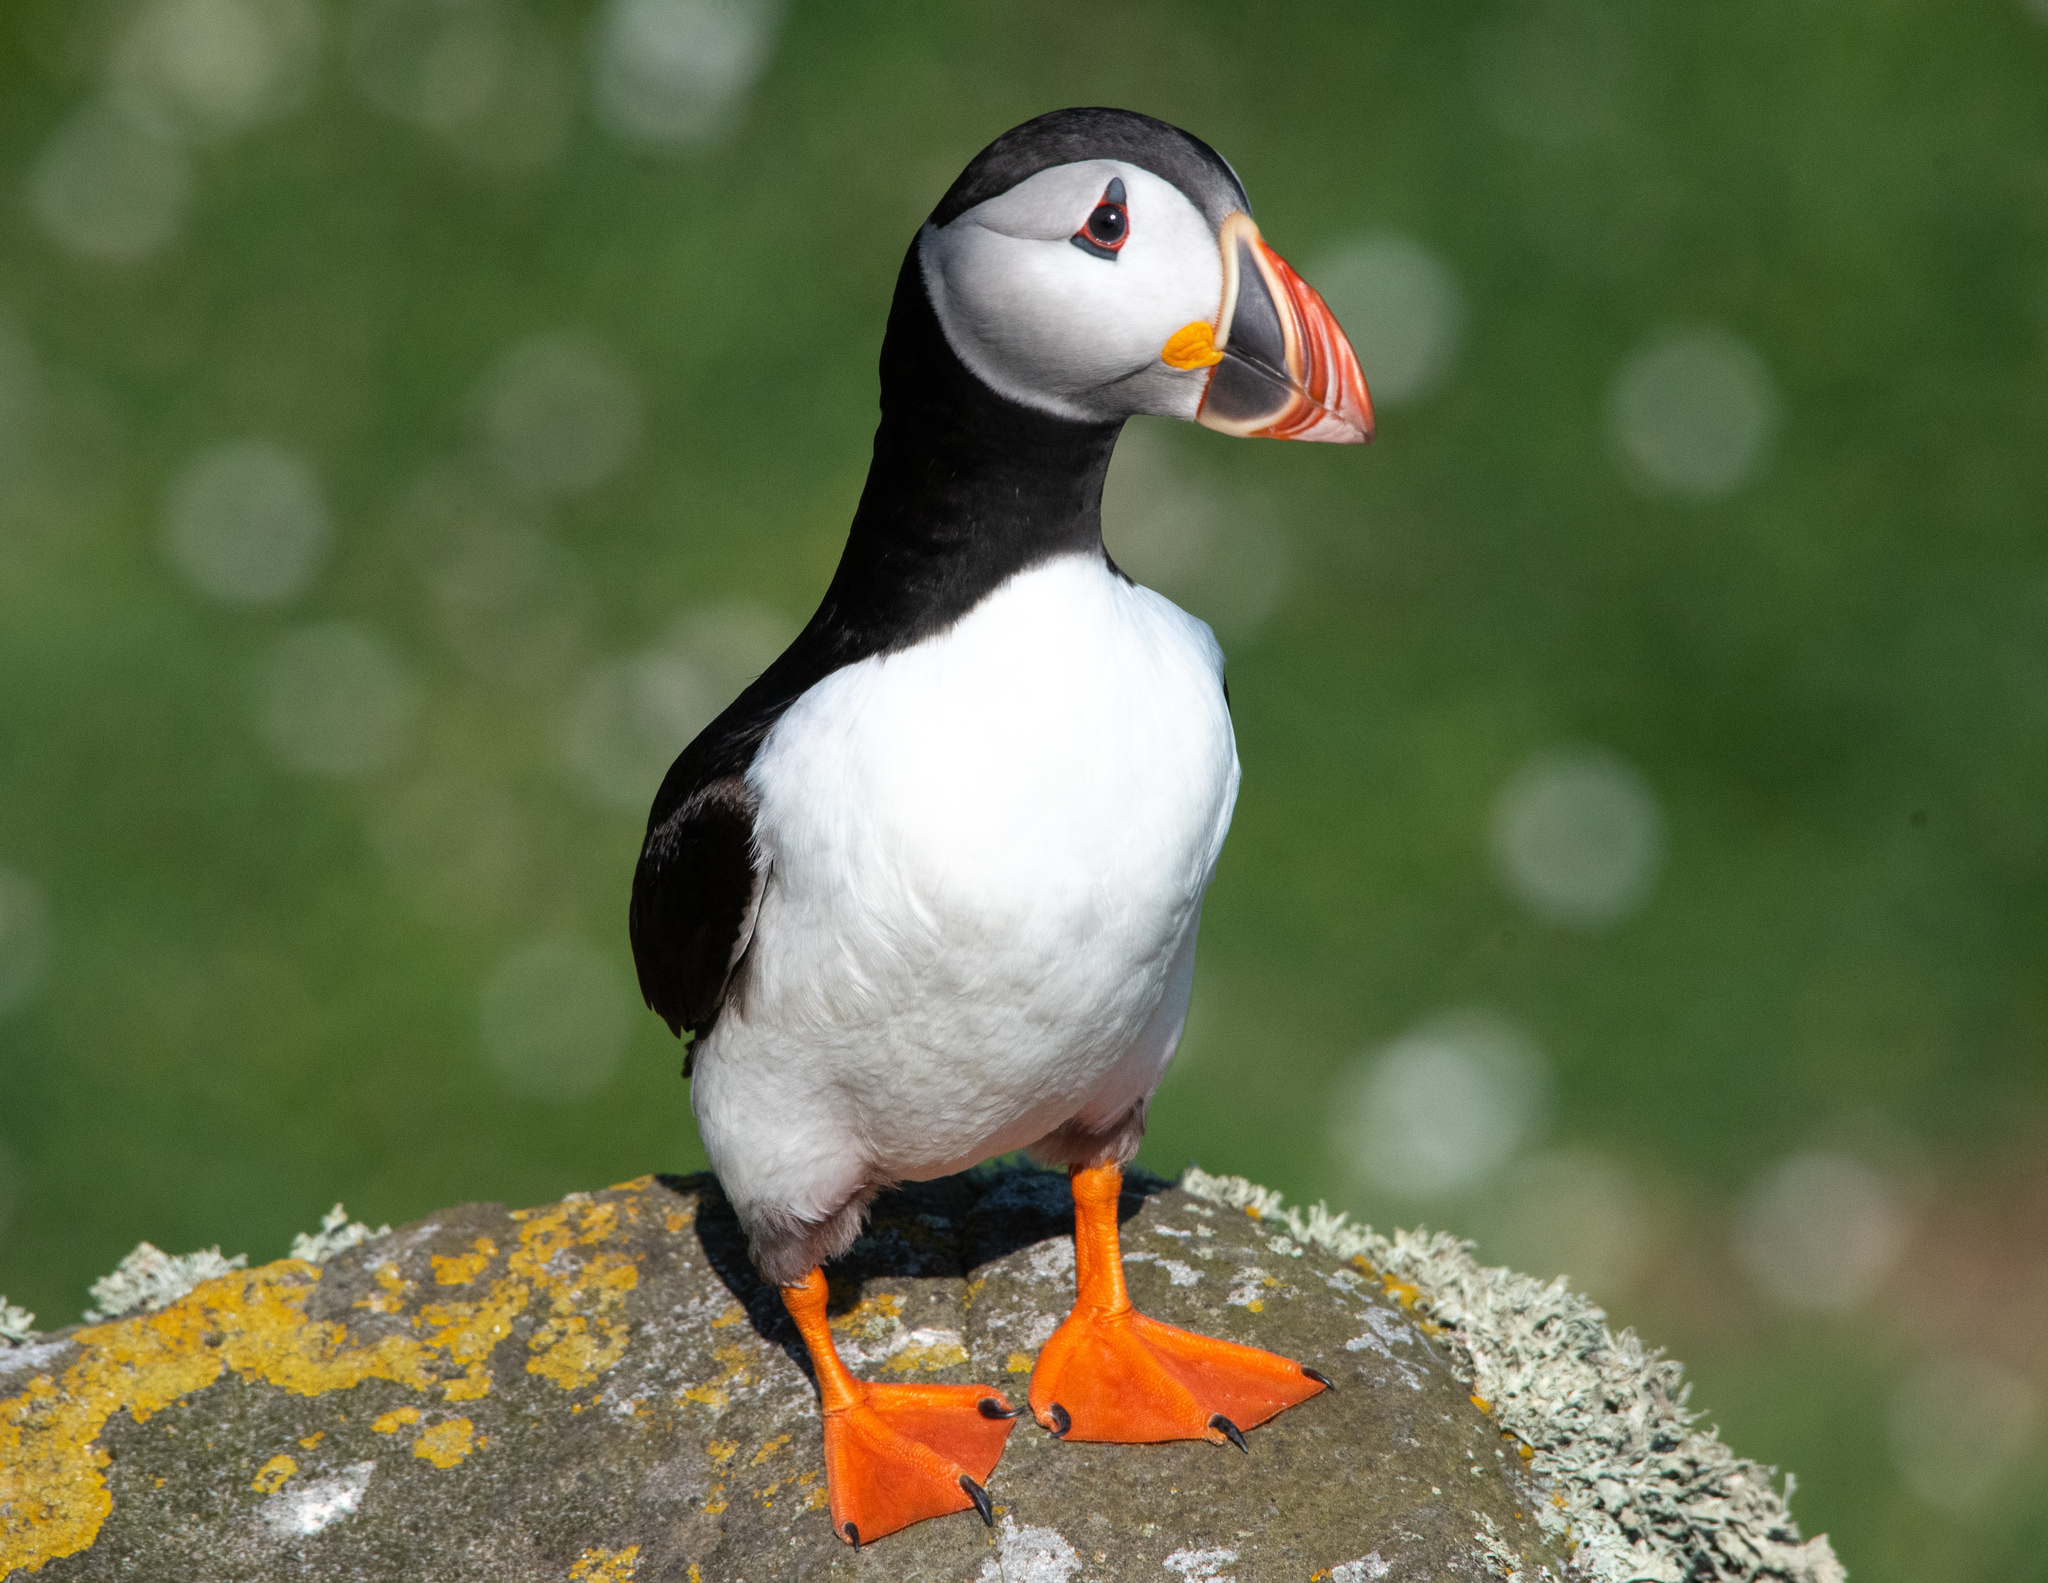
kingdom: Animalia
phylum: Chordata
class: Aves
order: Charadriiformes
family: Alcidae
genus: Fratercula
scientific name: Fratercula arctica
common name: Atlantic puffin
